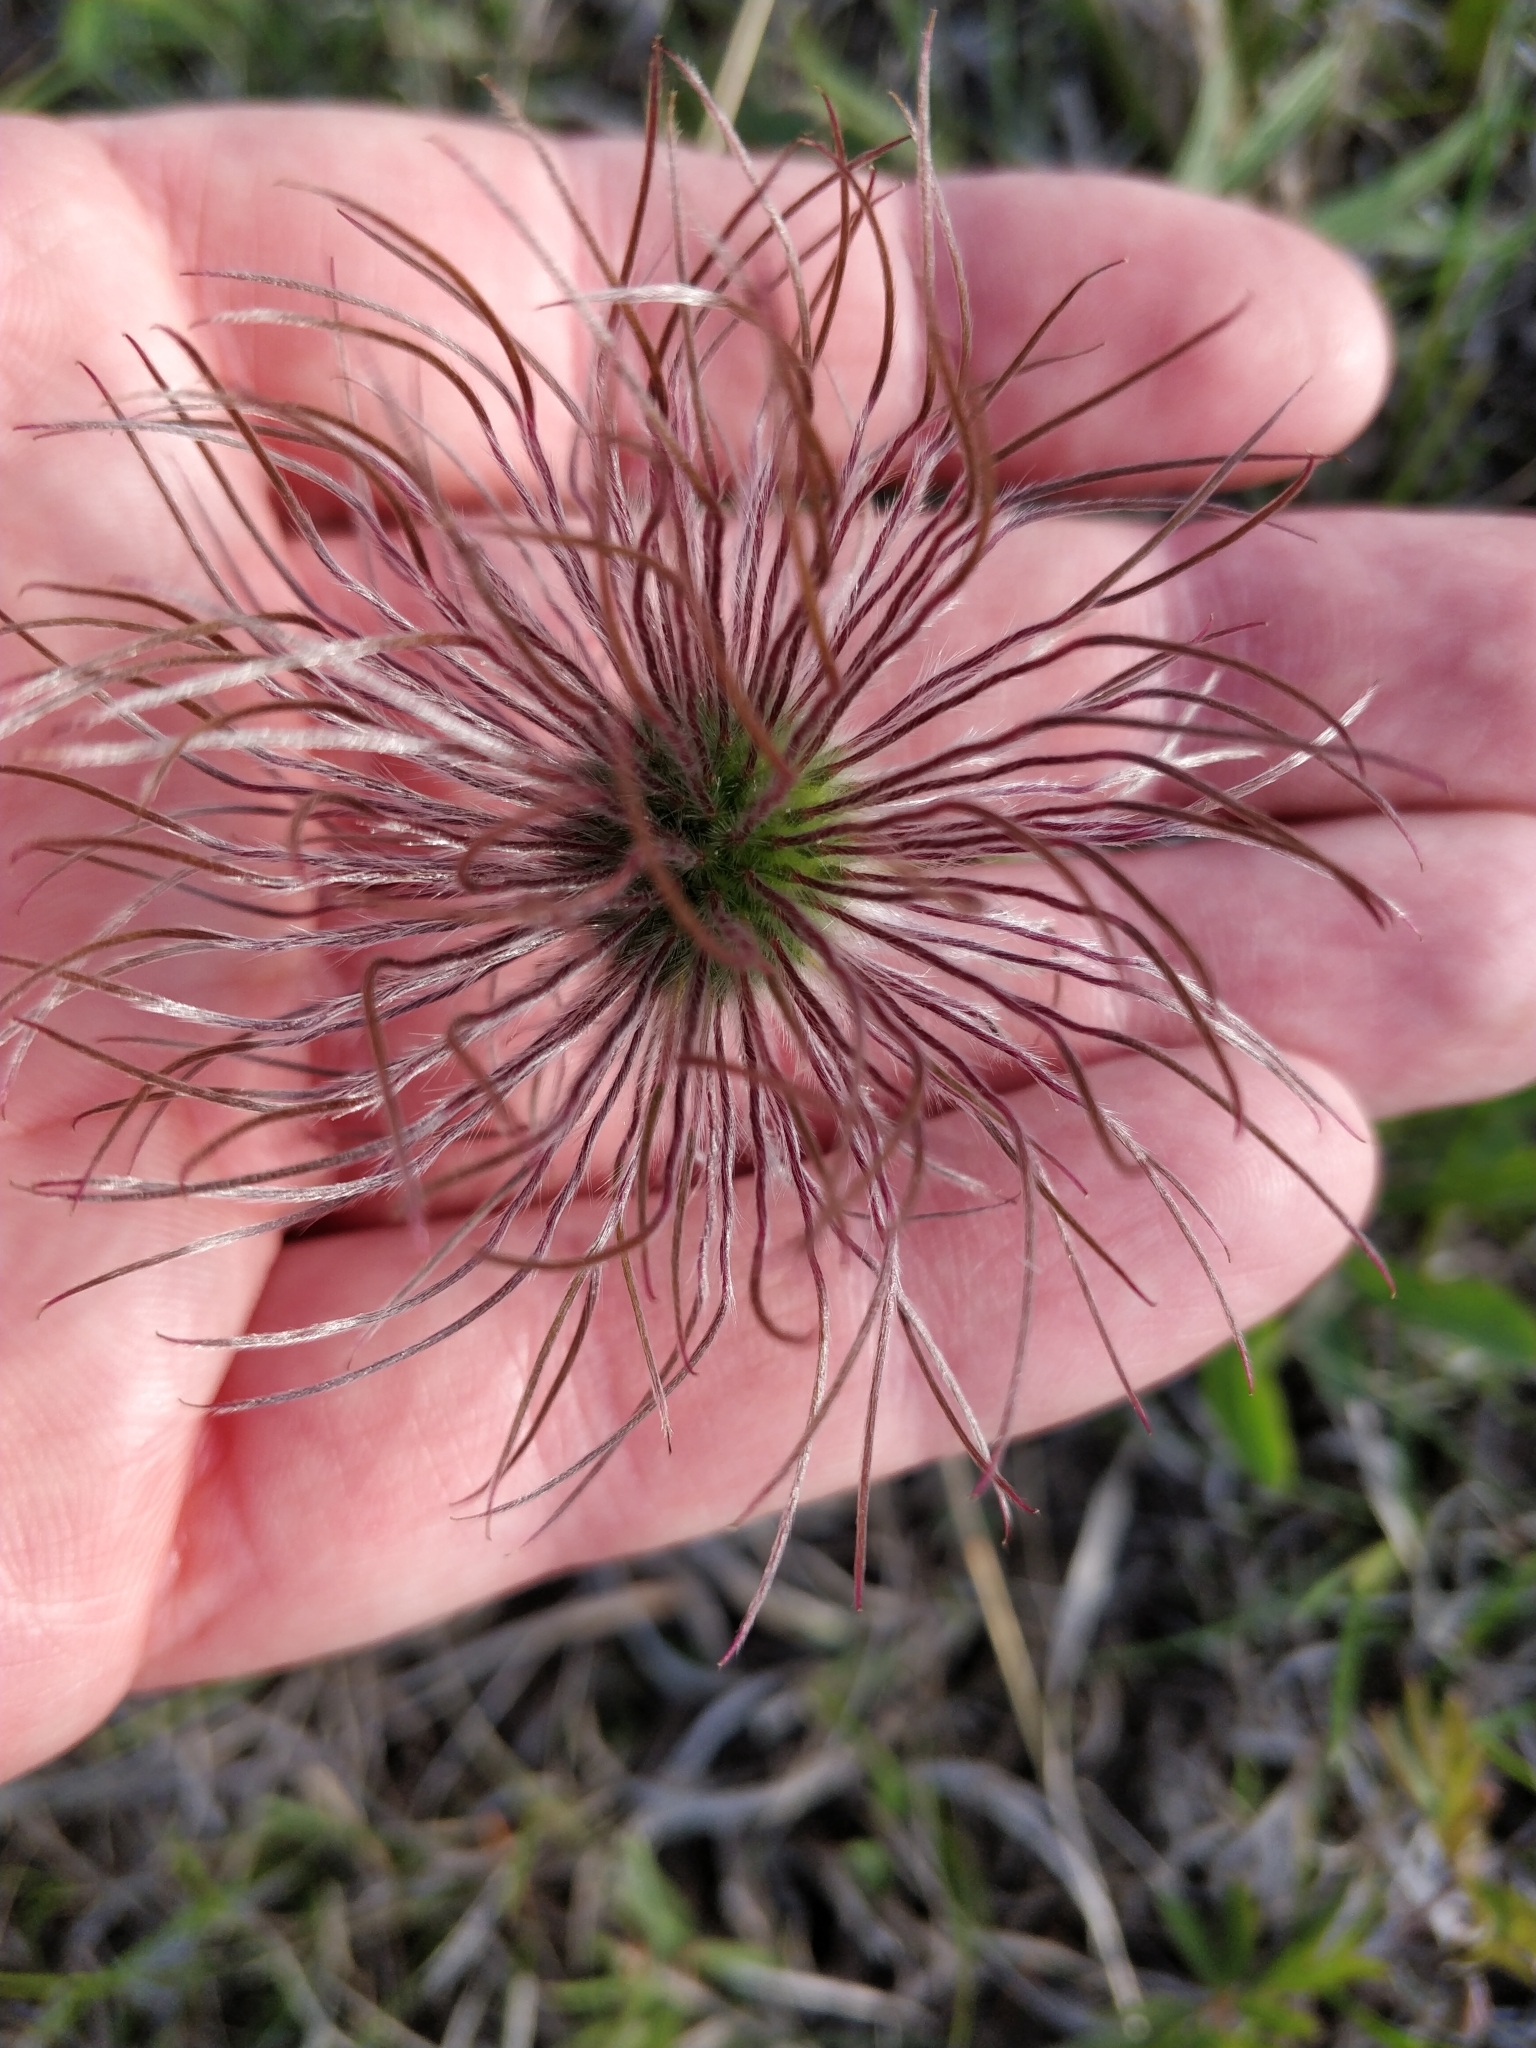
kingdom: Plantae
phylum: Tracheophyta
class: Magnoliopsida
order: Ranunculales
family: Ranunculaceae
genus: Pulsatilla
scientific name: Pulsatilla nuttalliana
